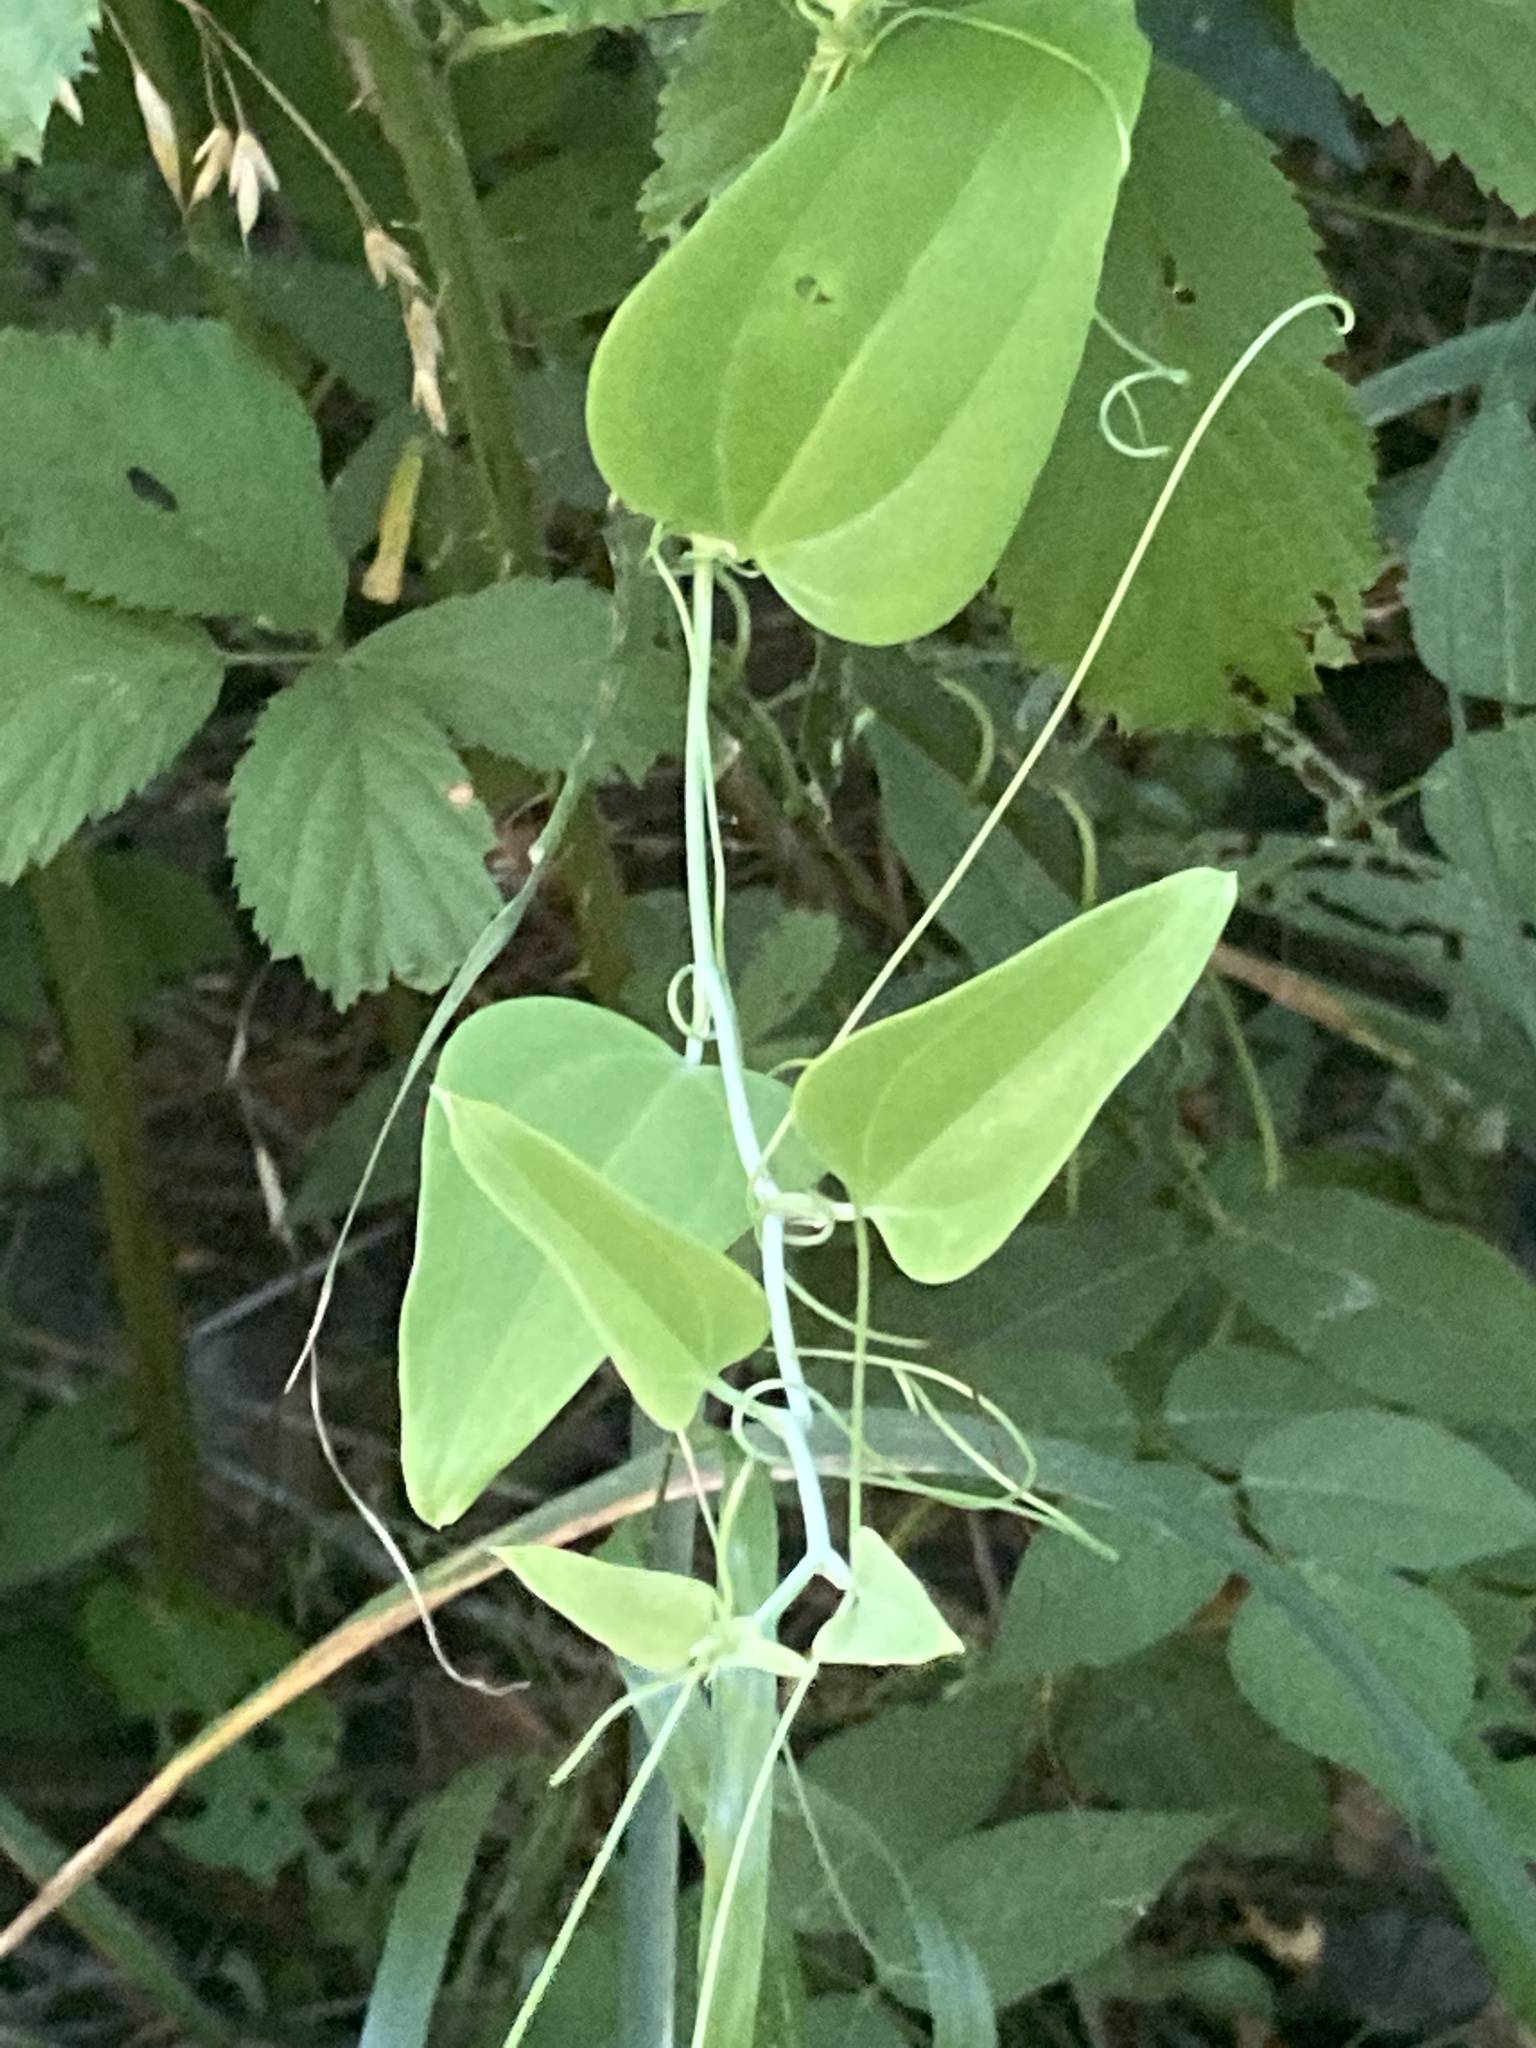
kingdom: Plantae
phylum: Tracheophyta
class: Liliopsida
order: Liliales
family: Smilacaceae
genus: Smilax
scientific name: Smilax glauca
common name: Cat greenbrier
